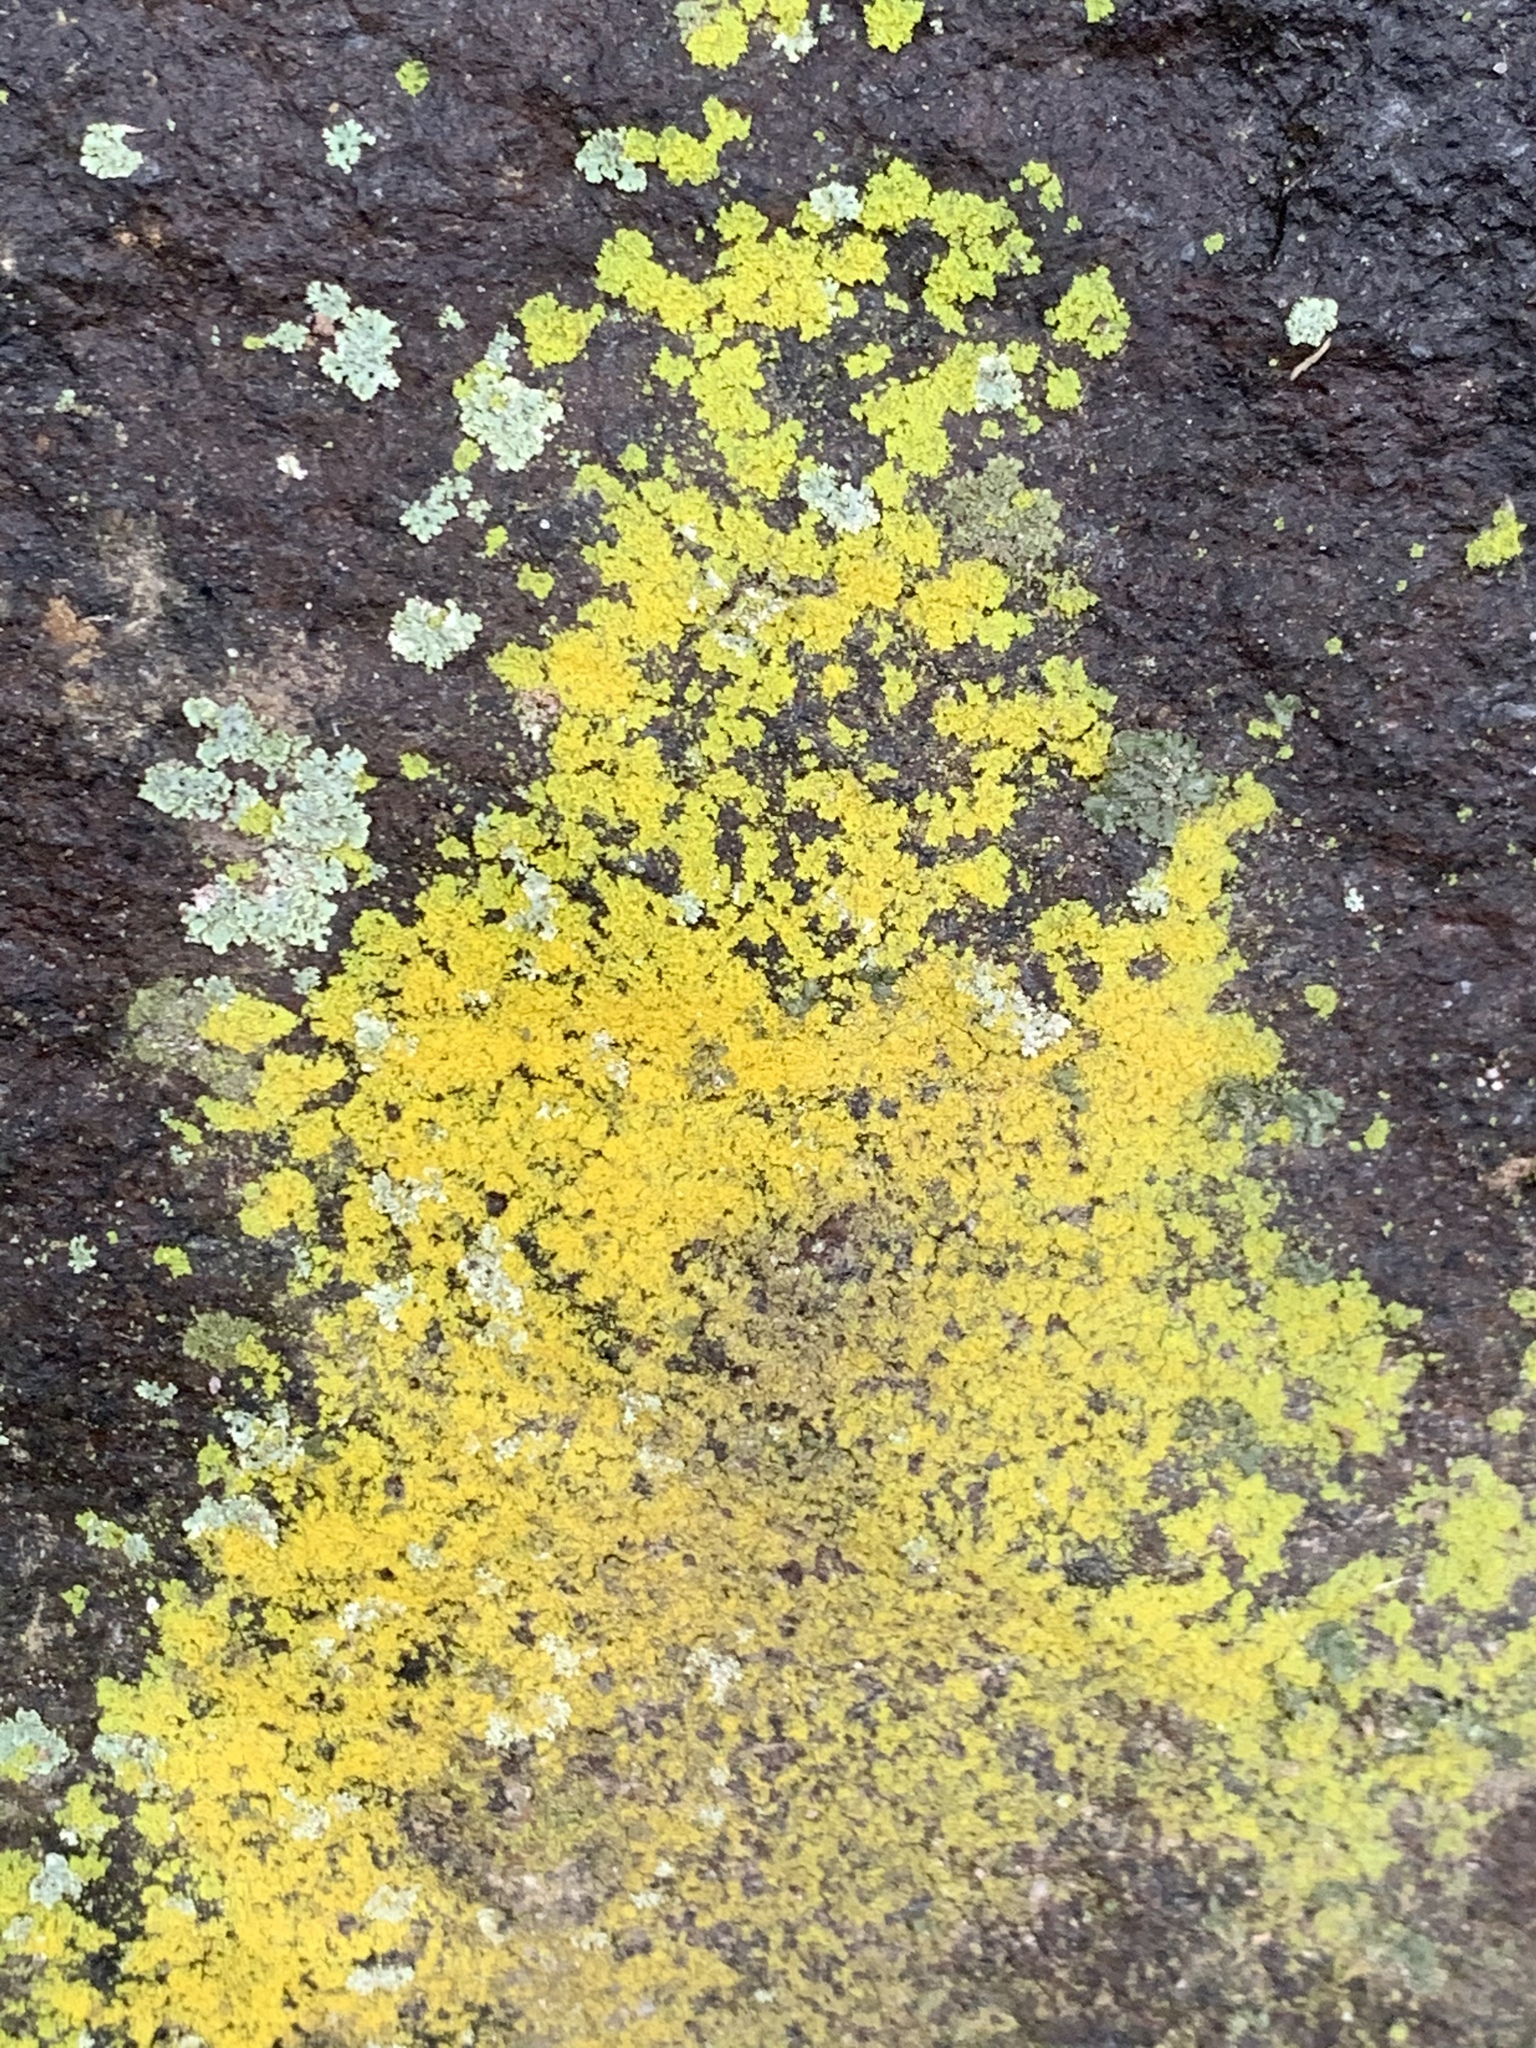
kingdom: Fungi
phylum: Ascomycota
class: Candelariomycetes
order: Candelariales
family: Candelariaceae
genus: Candelaria
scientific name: Candelaria concolor
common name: Candleflame lichen
